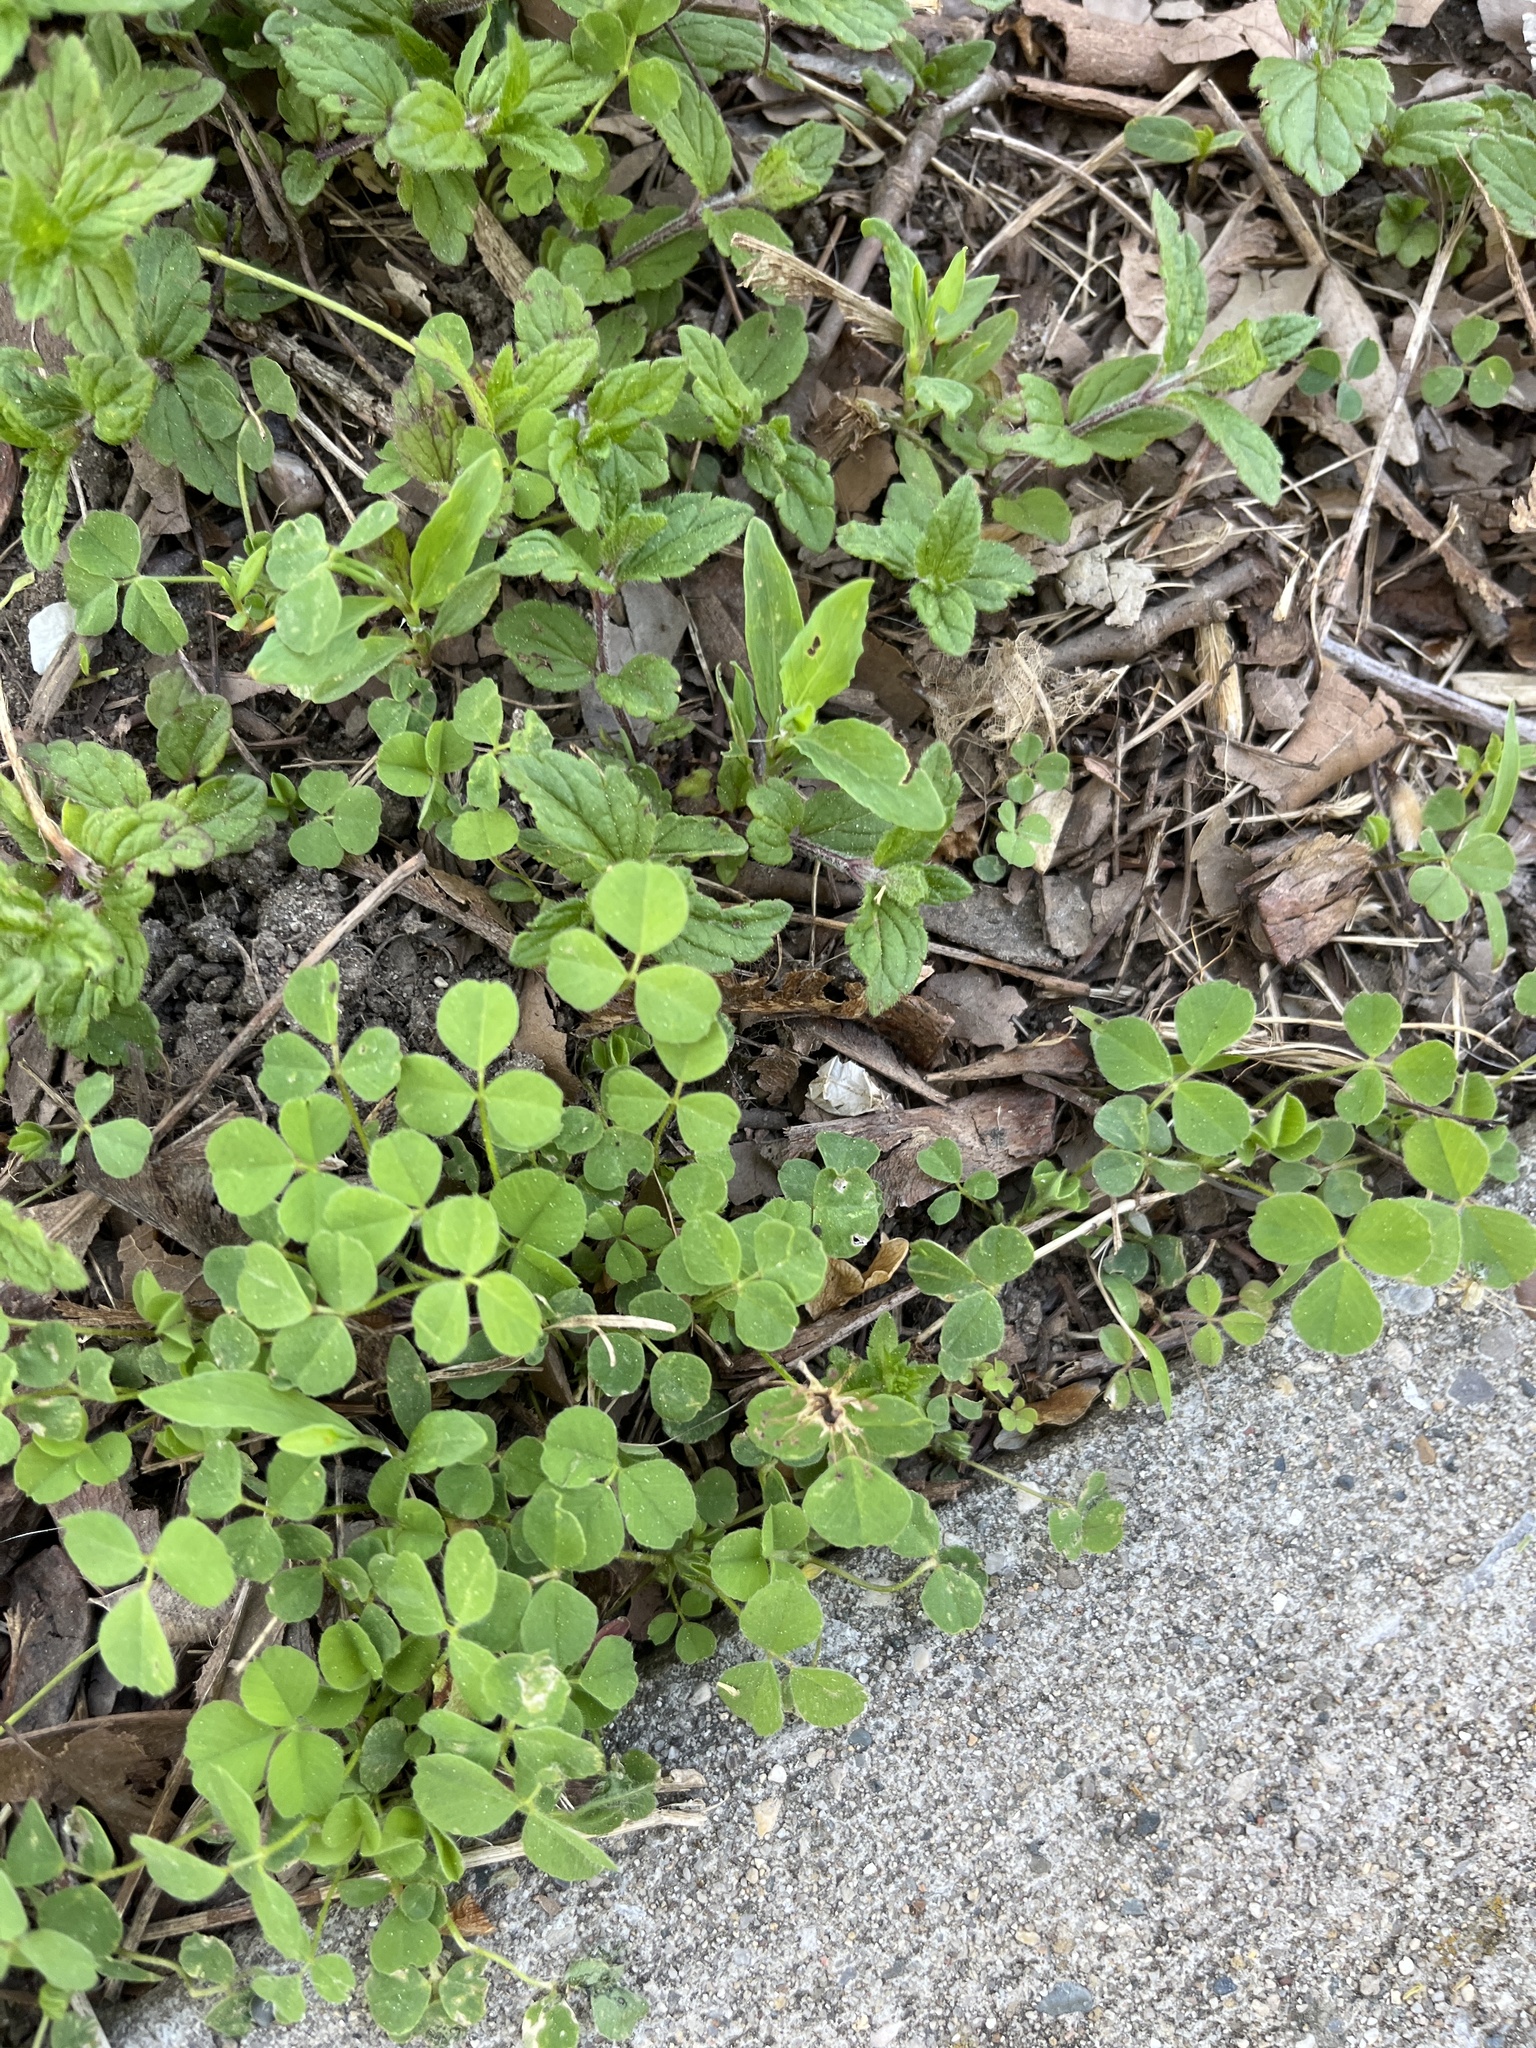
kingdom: Plantae
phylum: Tracheophyta
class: Magnoliopsida
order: Fabales
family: Fabaceae
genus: Medicago
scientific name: Medicago lupulina
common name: Black medick
